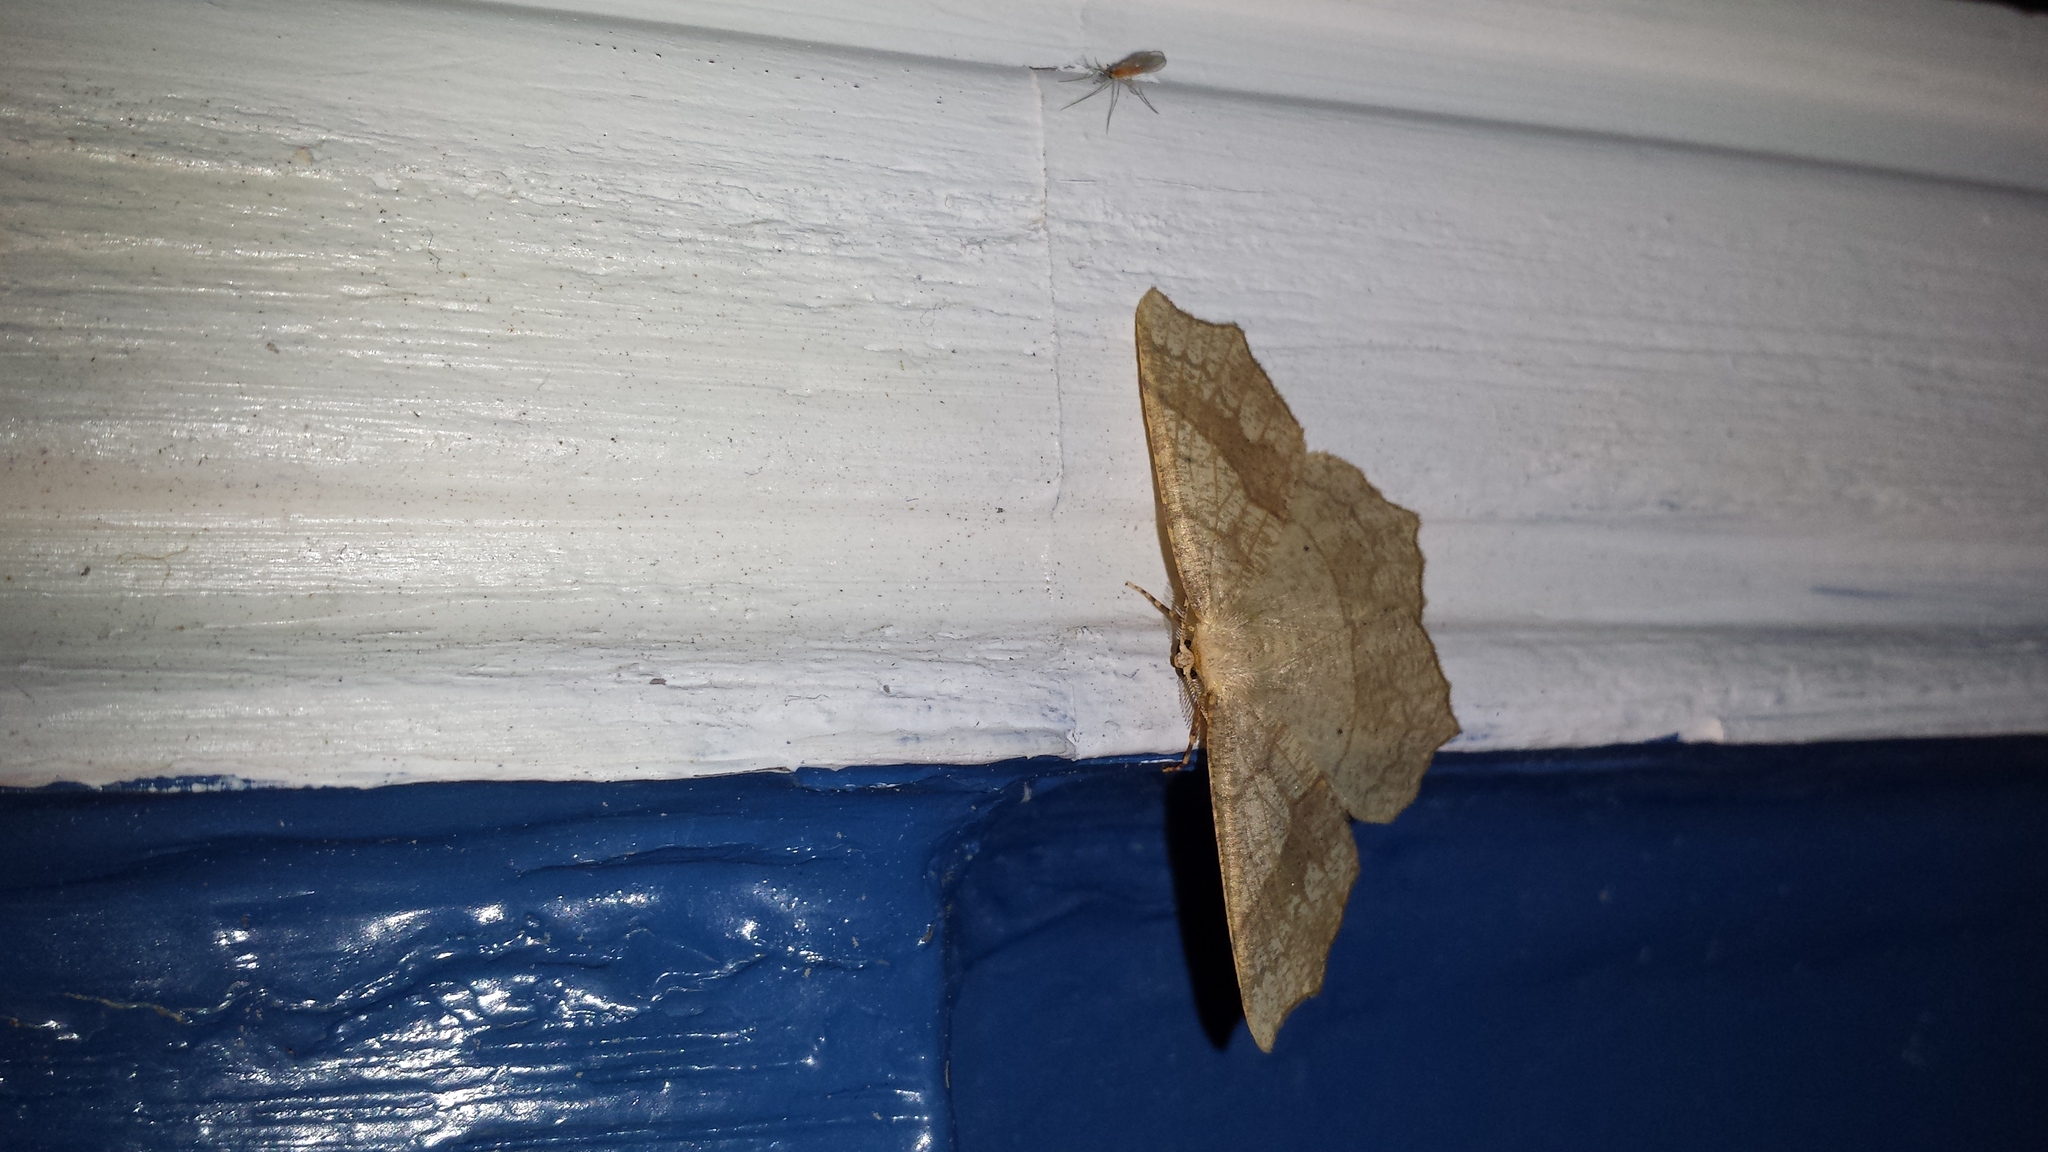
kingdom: Animalia
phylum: Arthropoda
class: Insecta
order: Lepidoptera
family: Geometridae
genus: Besma
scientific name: Besma quercivoraria
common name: Oak besma
